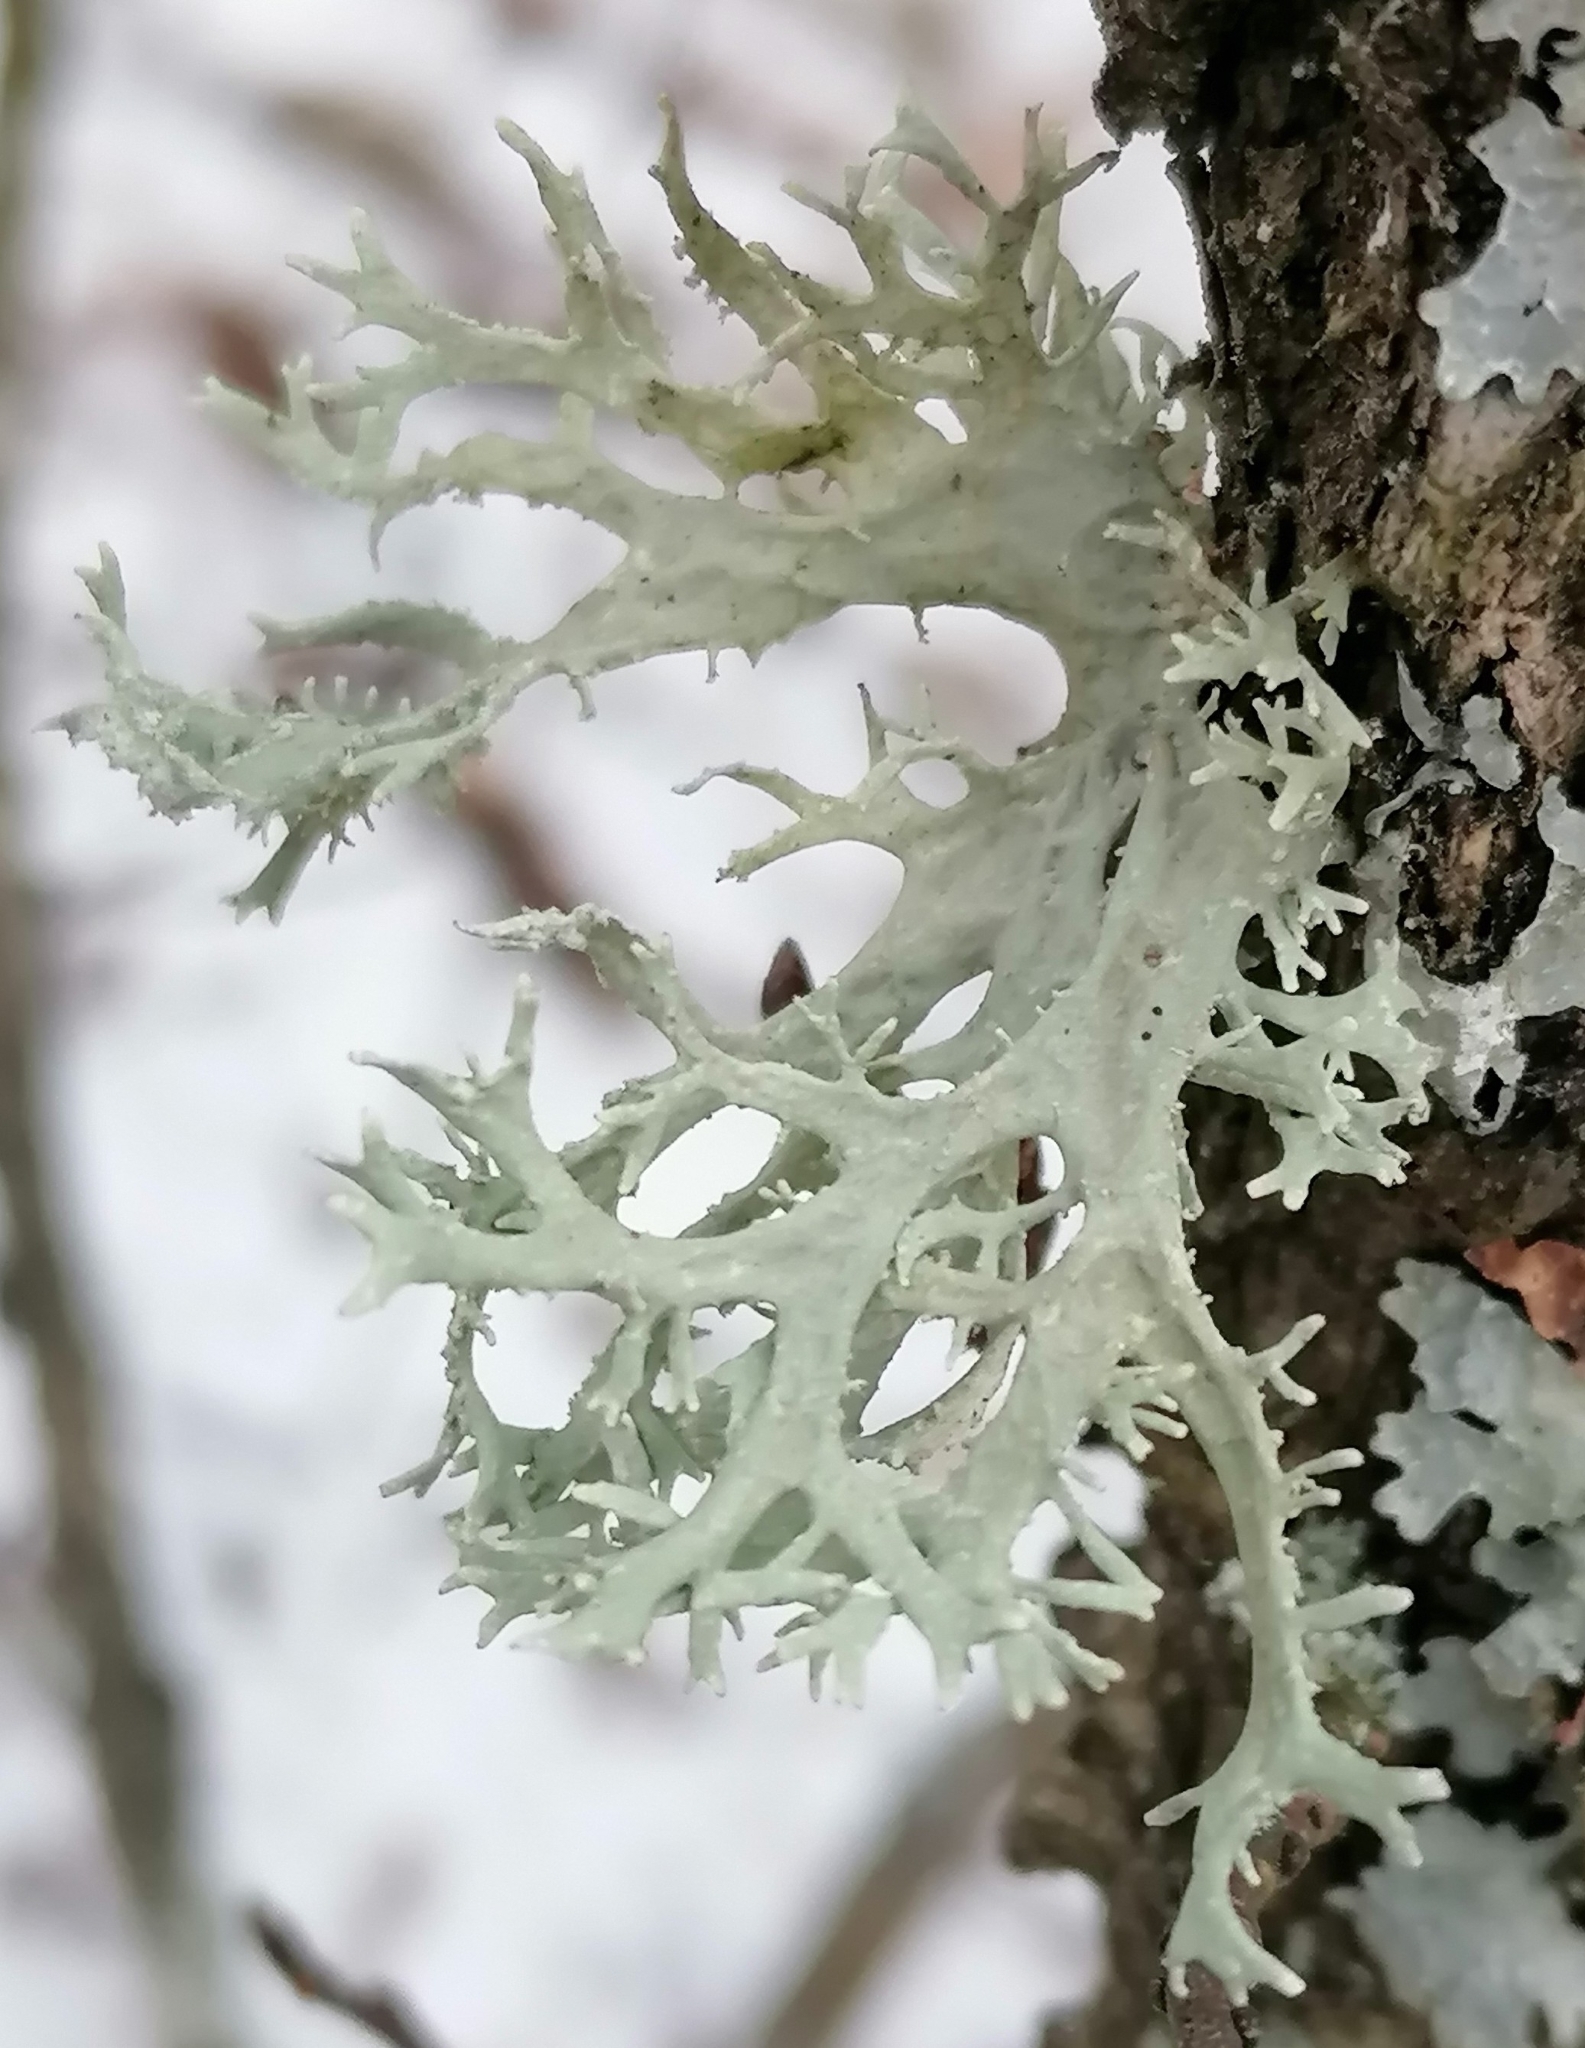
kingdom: Fungi
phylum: Ascomycota
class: Lecanoromycetes
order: Lecanorales
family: Parmeliaceae
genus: Evernia
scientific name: Evernia prunastri
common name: Oak moss
